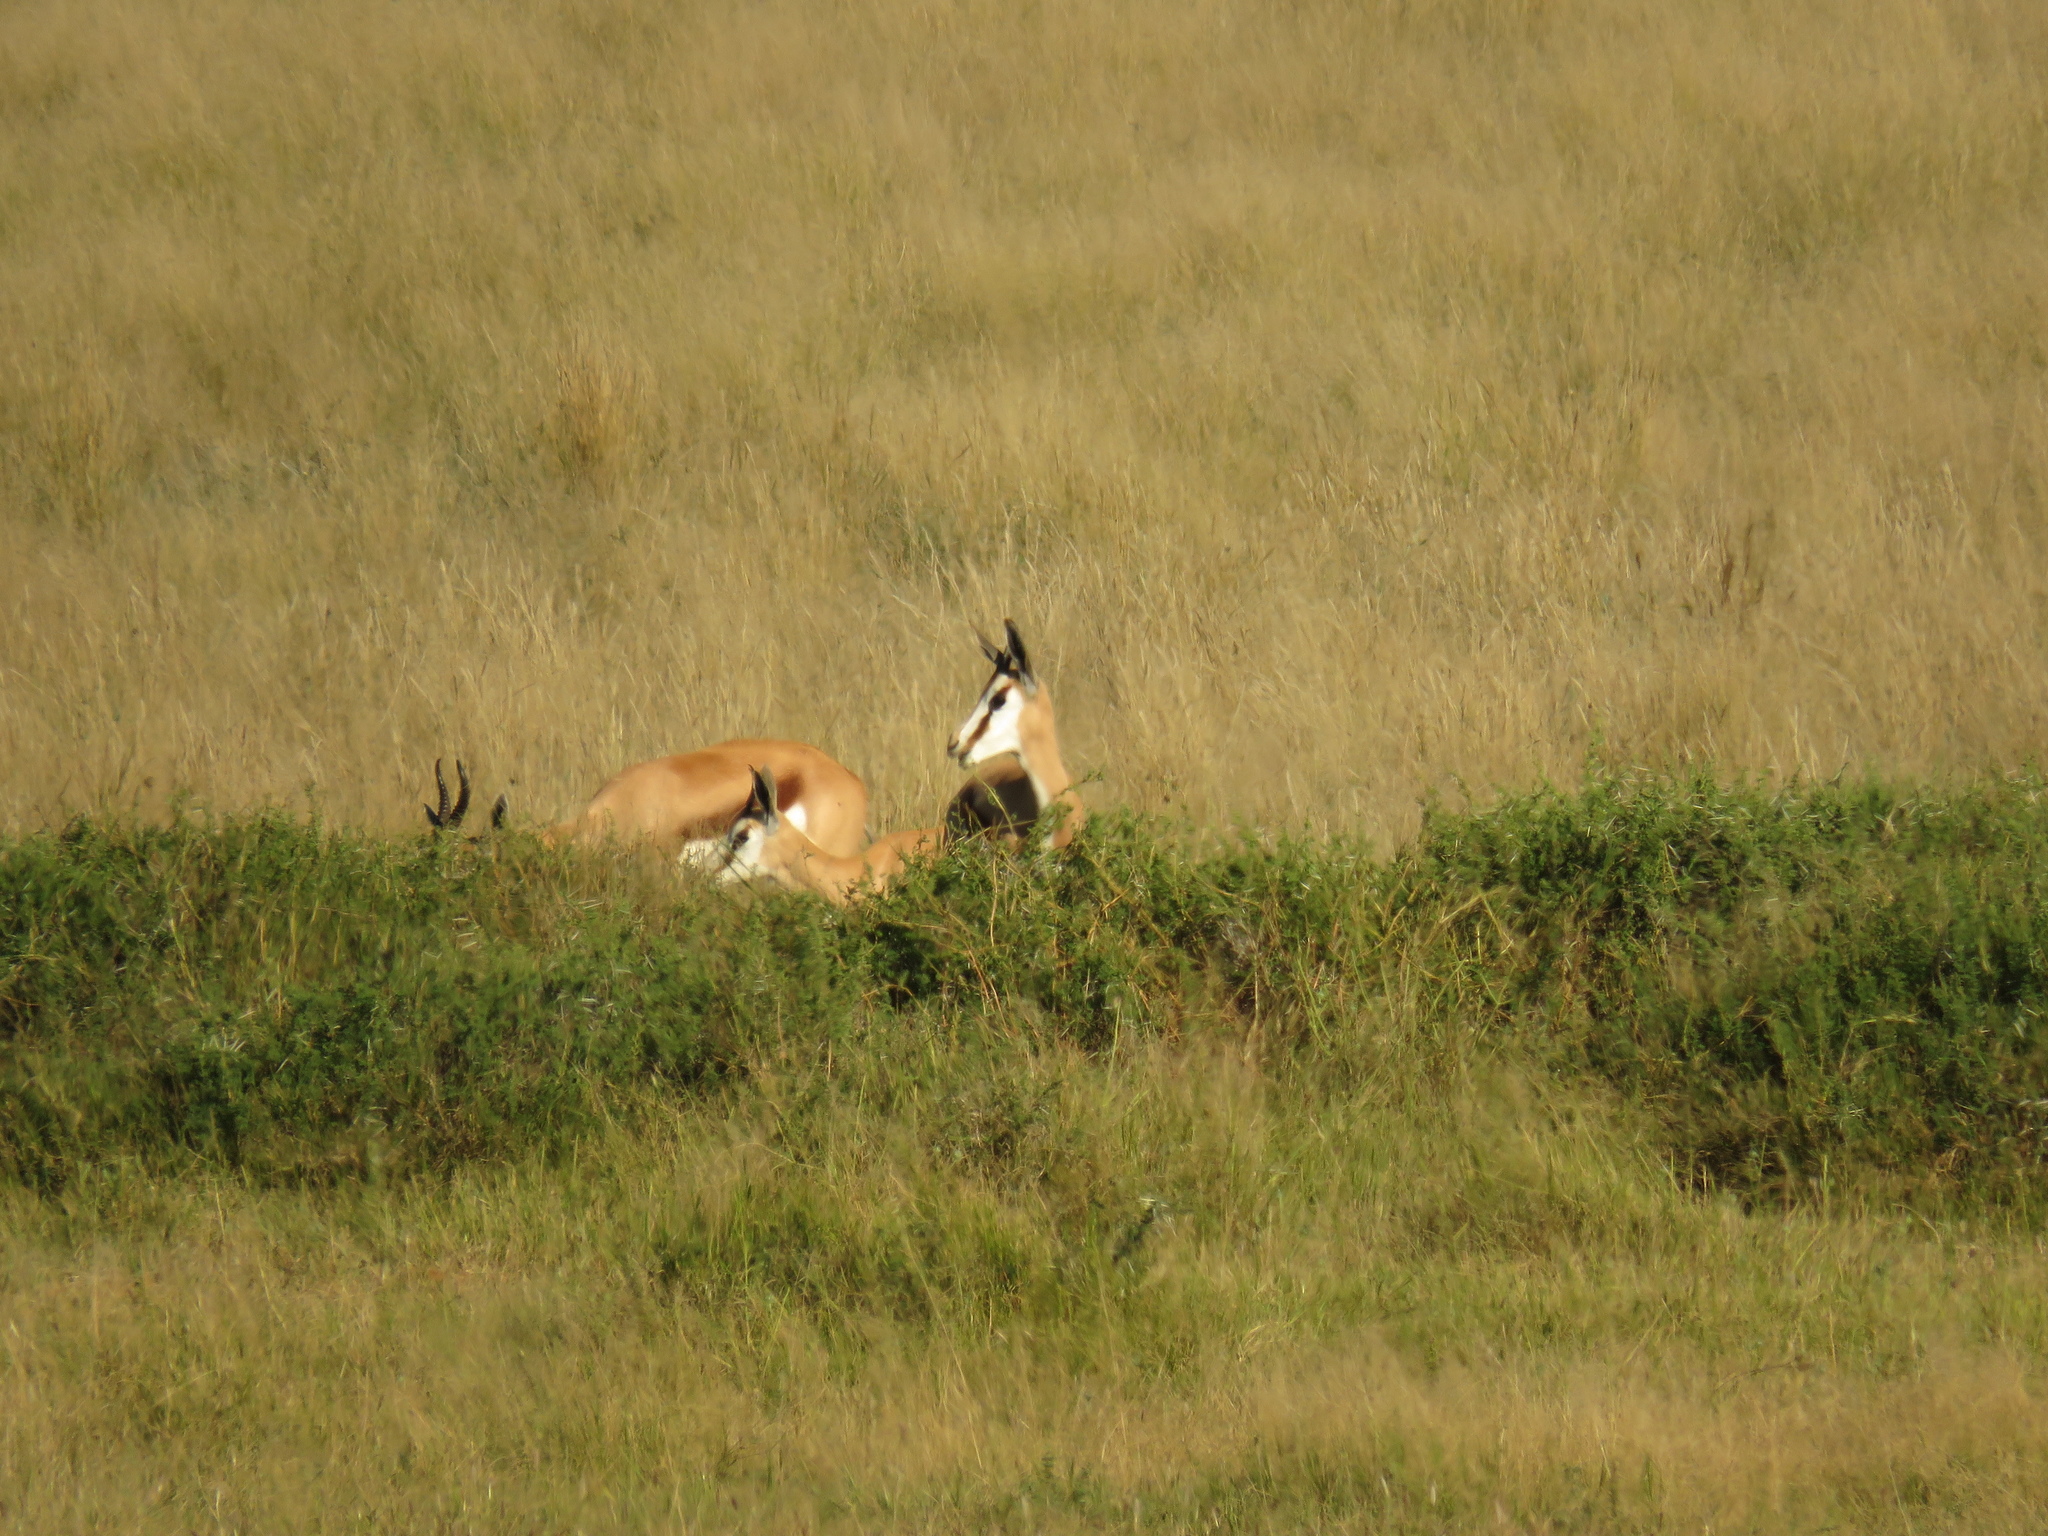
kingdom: Animalia
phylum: Chordata
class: Mammalia
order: Artiodactyla
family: Bovidae
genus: Antidorcas
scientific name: Antidorcas marsupialis
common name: Springbok
